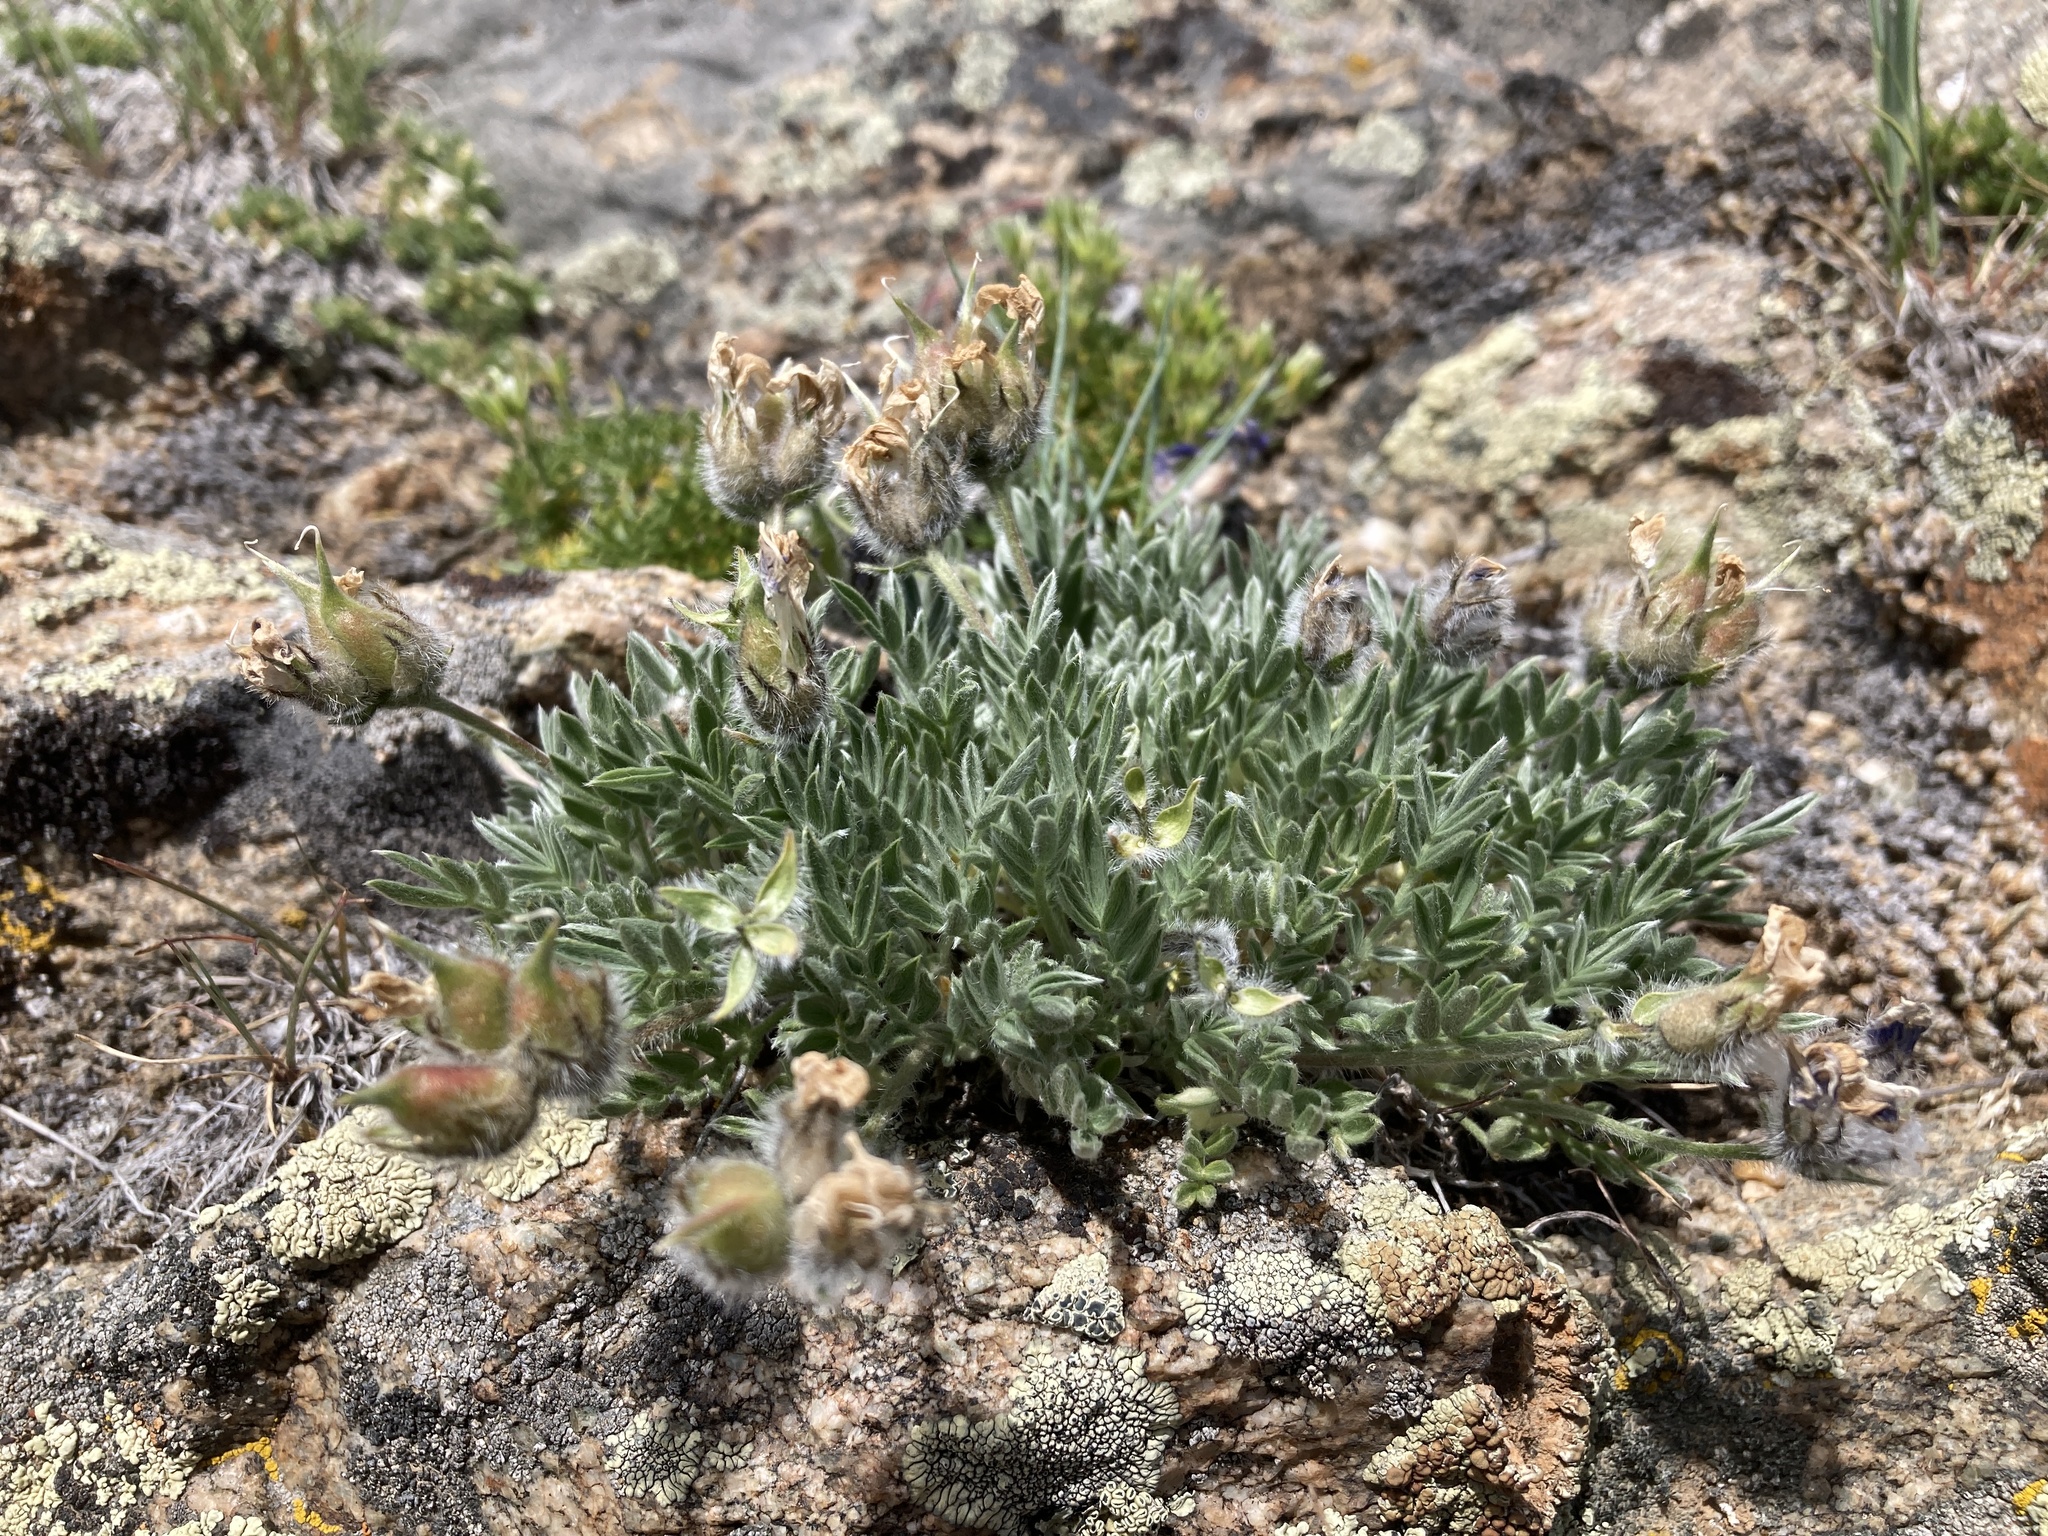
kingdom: Plantae
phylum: Tracheophyta
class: Magnoliopsida
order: Fabales
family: Fabaceae
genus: Oxytropis
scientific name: Oxytropis besseyi
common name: Bessey's locoweed
